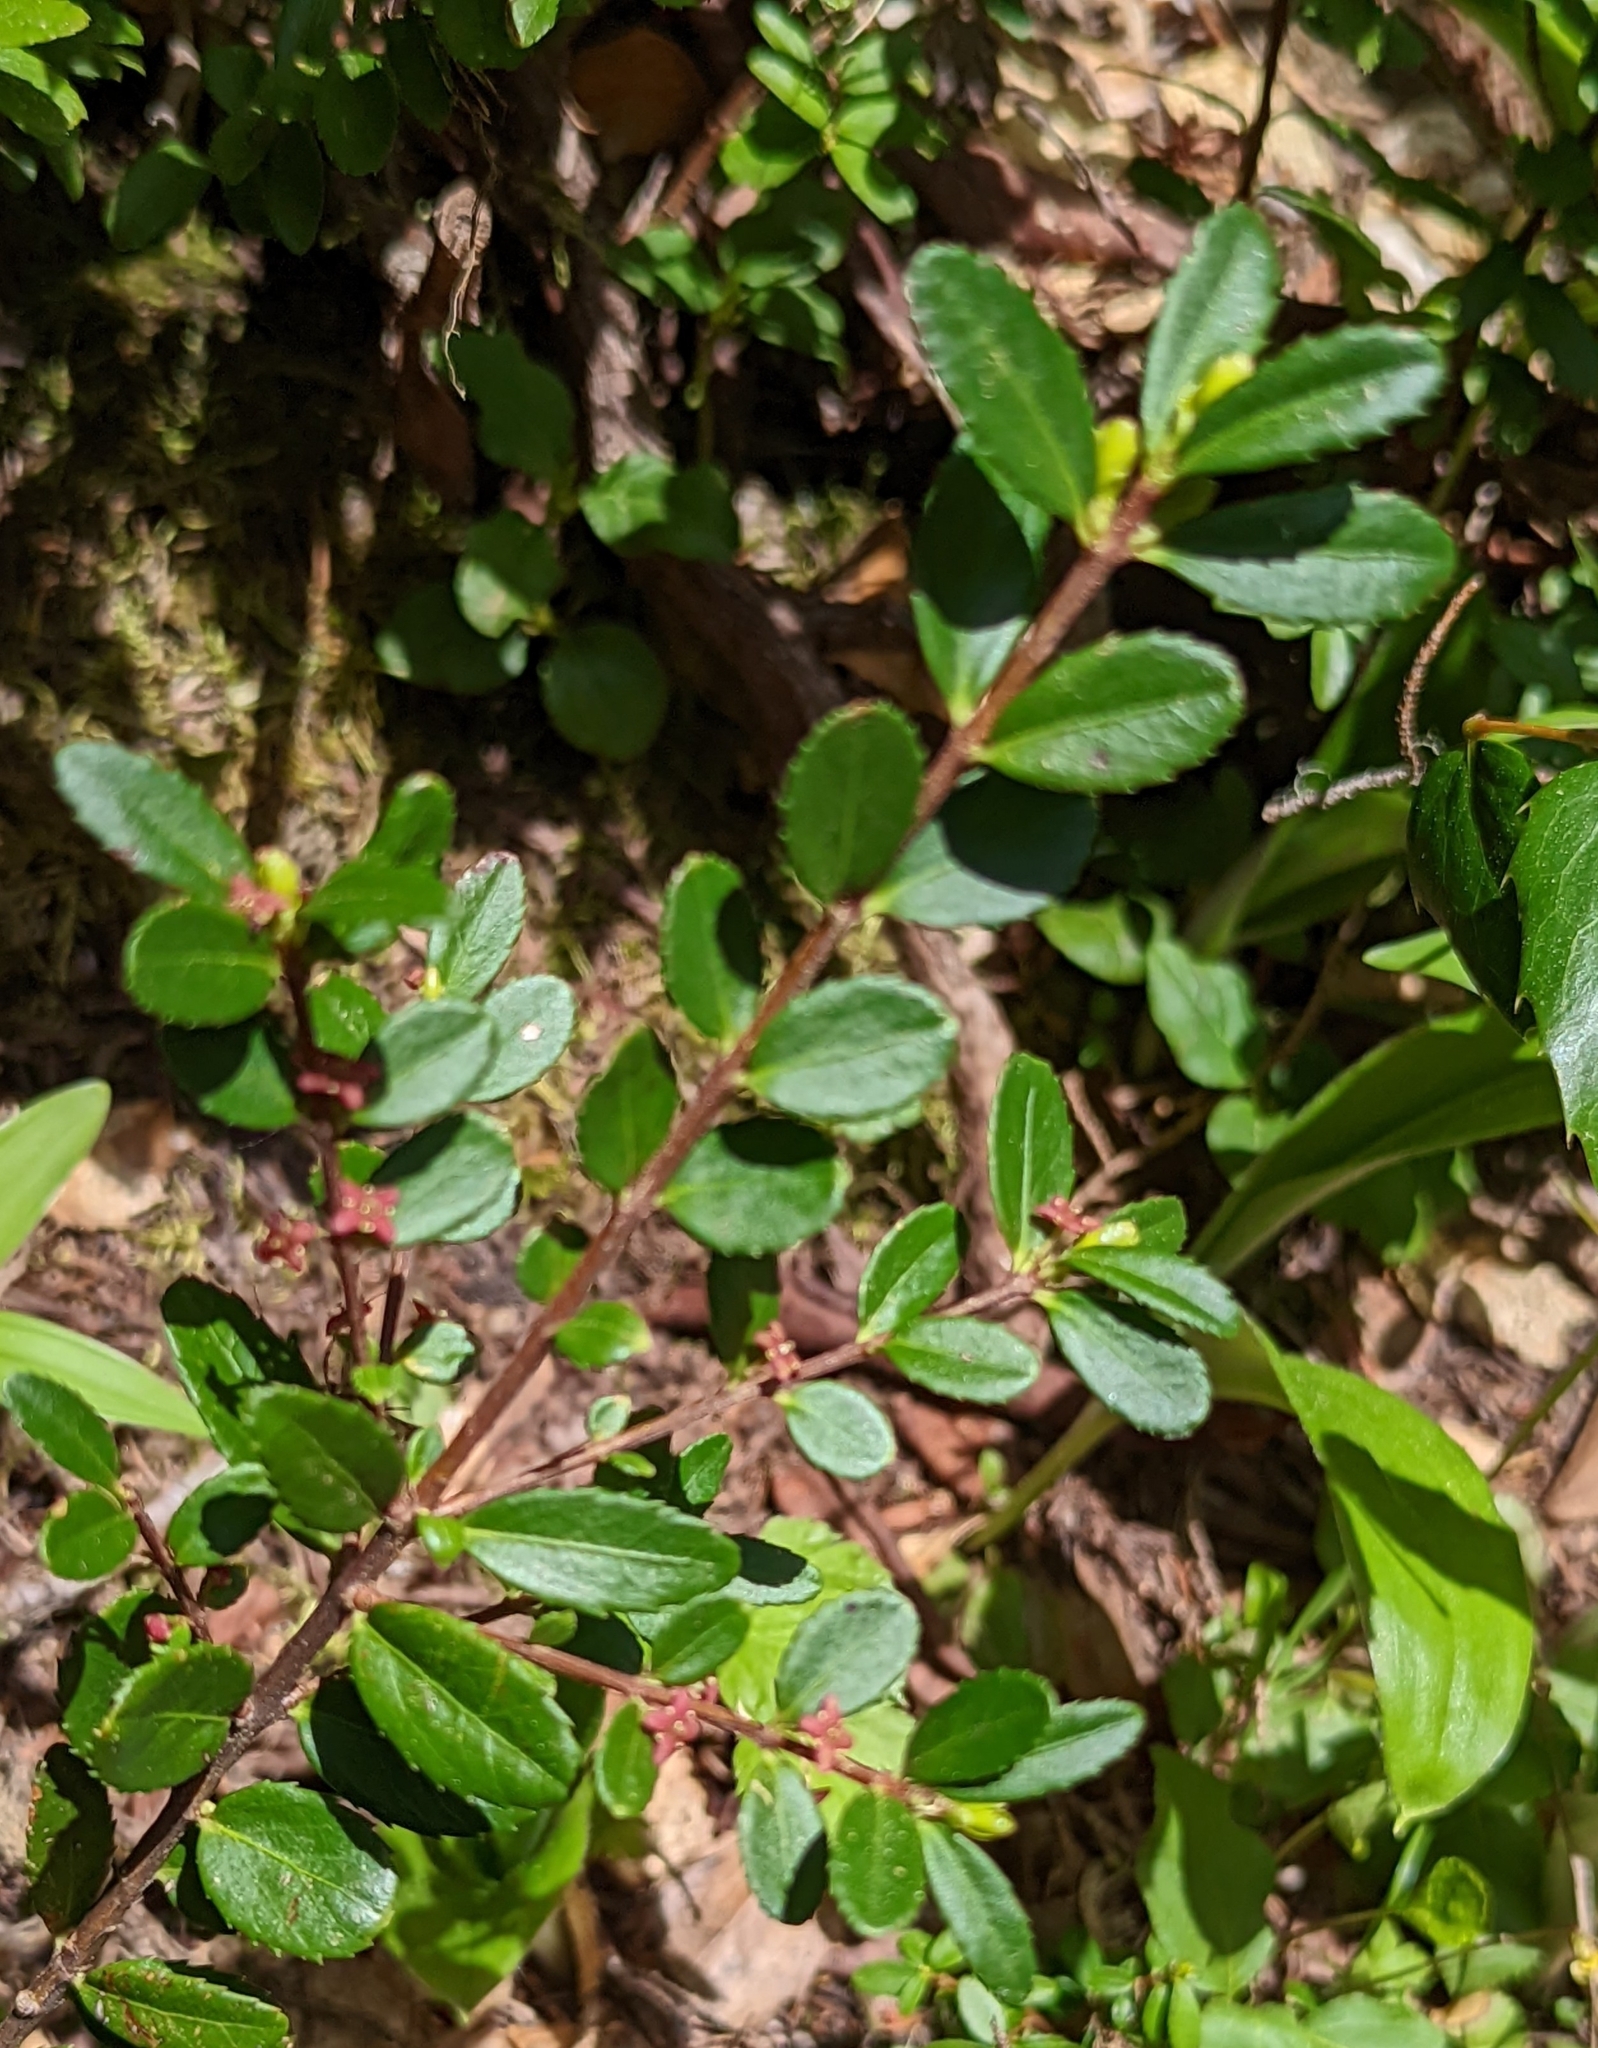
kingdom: Plantae
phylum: Tracheophyta
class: Magnoliopsida
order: Celastrales
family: Celastraceae
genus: Paxistima
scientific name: Paxistima myrsinites
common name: Mountain-lover
